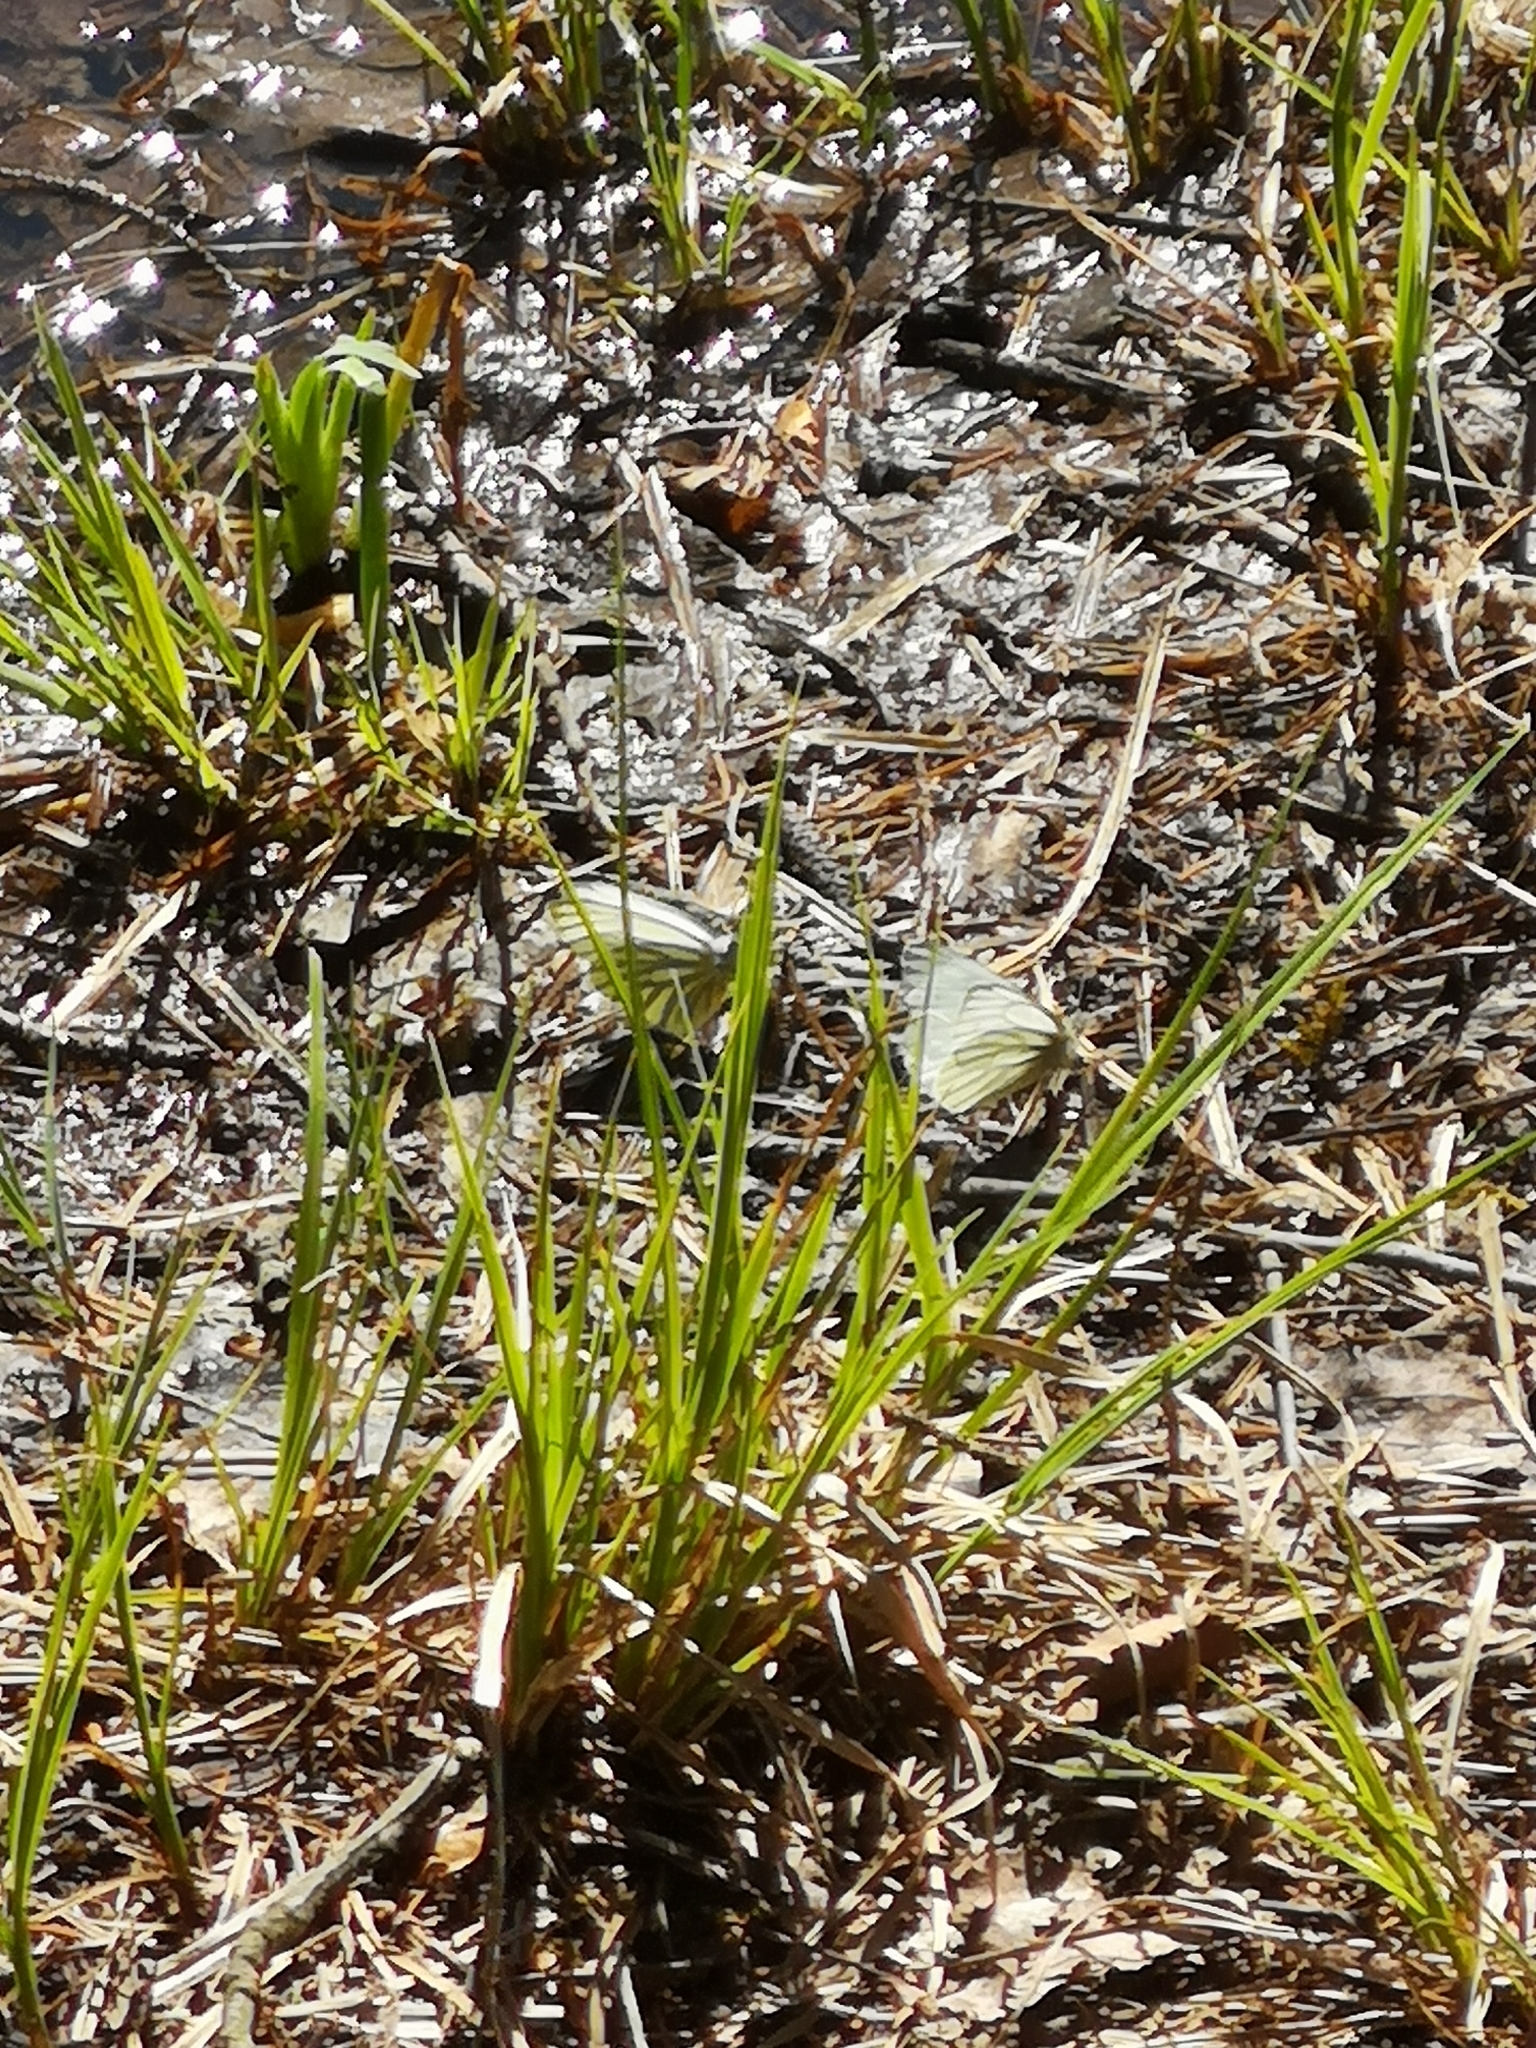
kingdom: Animalia
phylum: Arthropoda
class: Insecta
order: Lepidoptera
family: Pieridae
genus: Pieris
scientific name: Pieris napi
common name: Green-veined white
